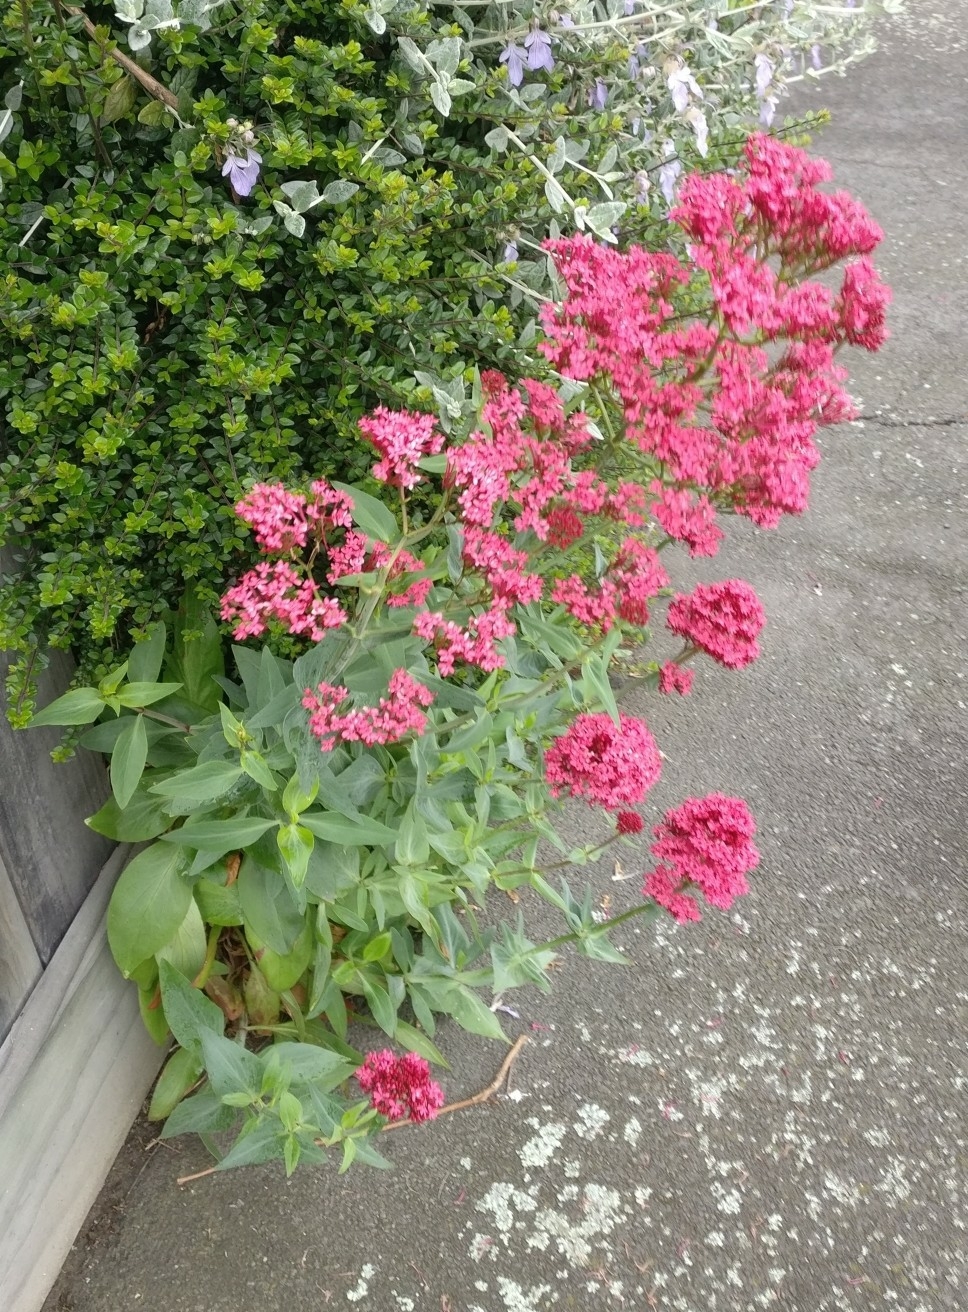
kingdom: Plantae
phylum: Tracheophyta
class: Magnoliopsida
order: Dipsacales
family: Caprifoliaceae
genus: Centranthus
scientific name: Centranthus ruber
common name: Red valerian
